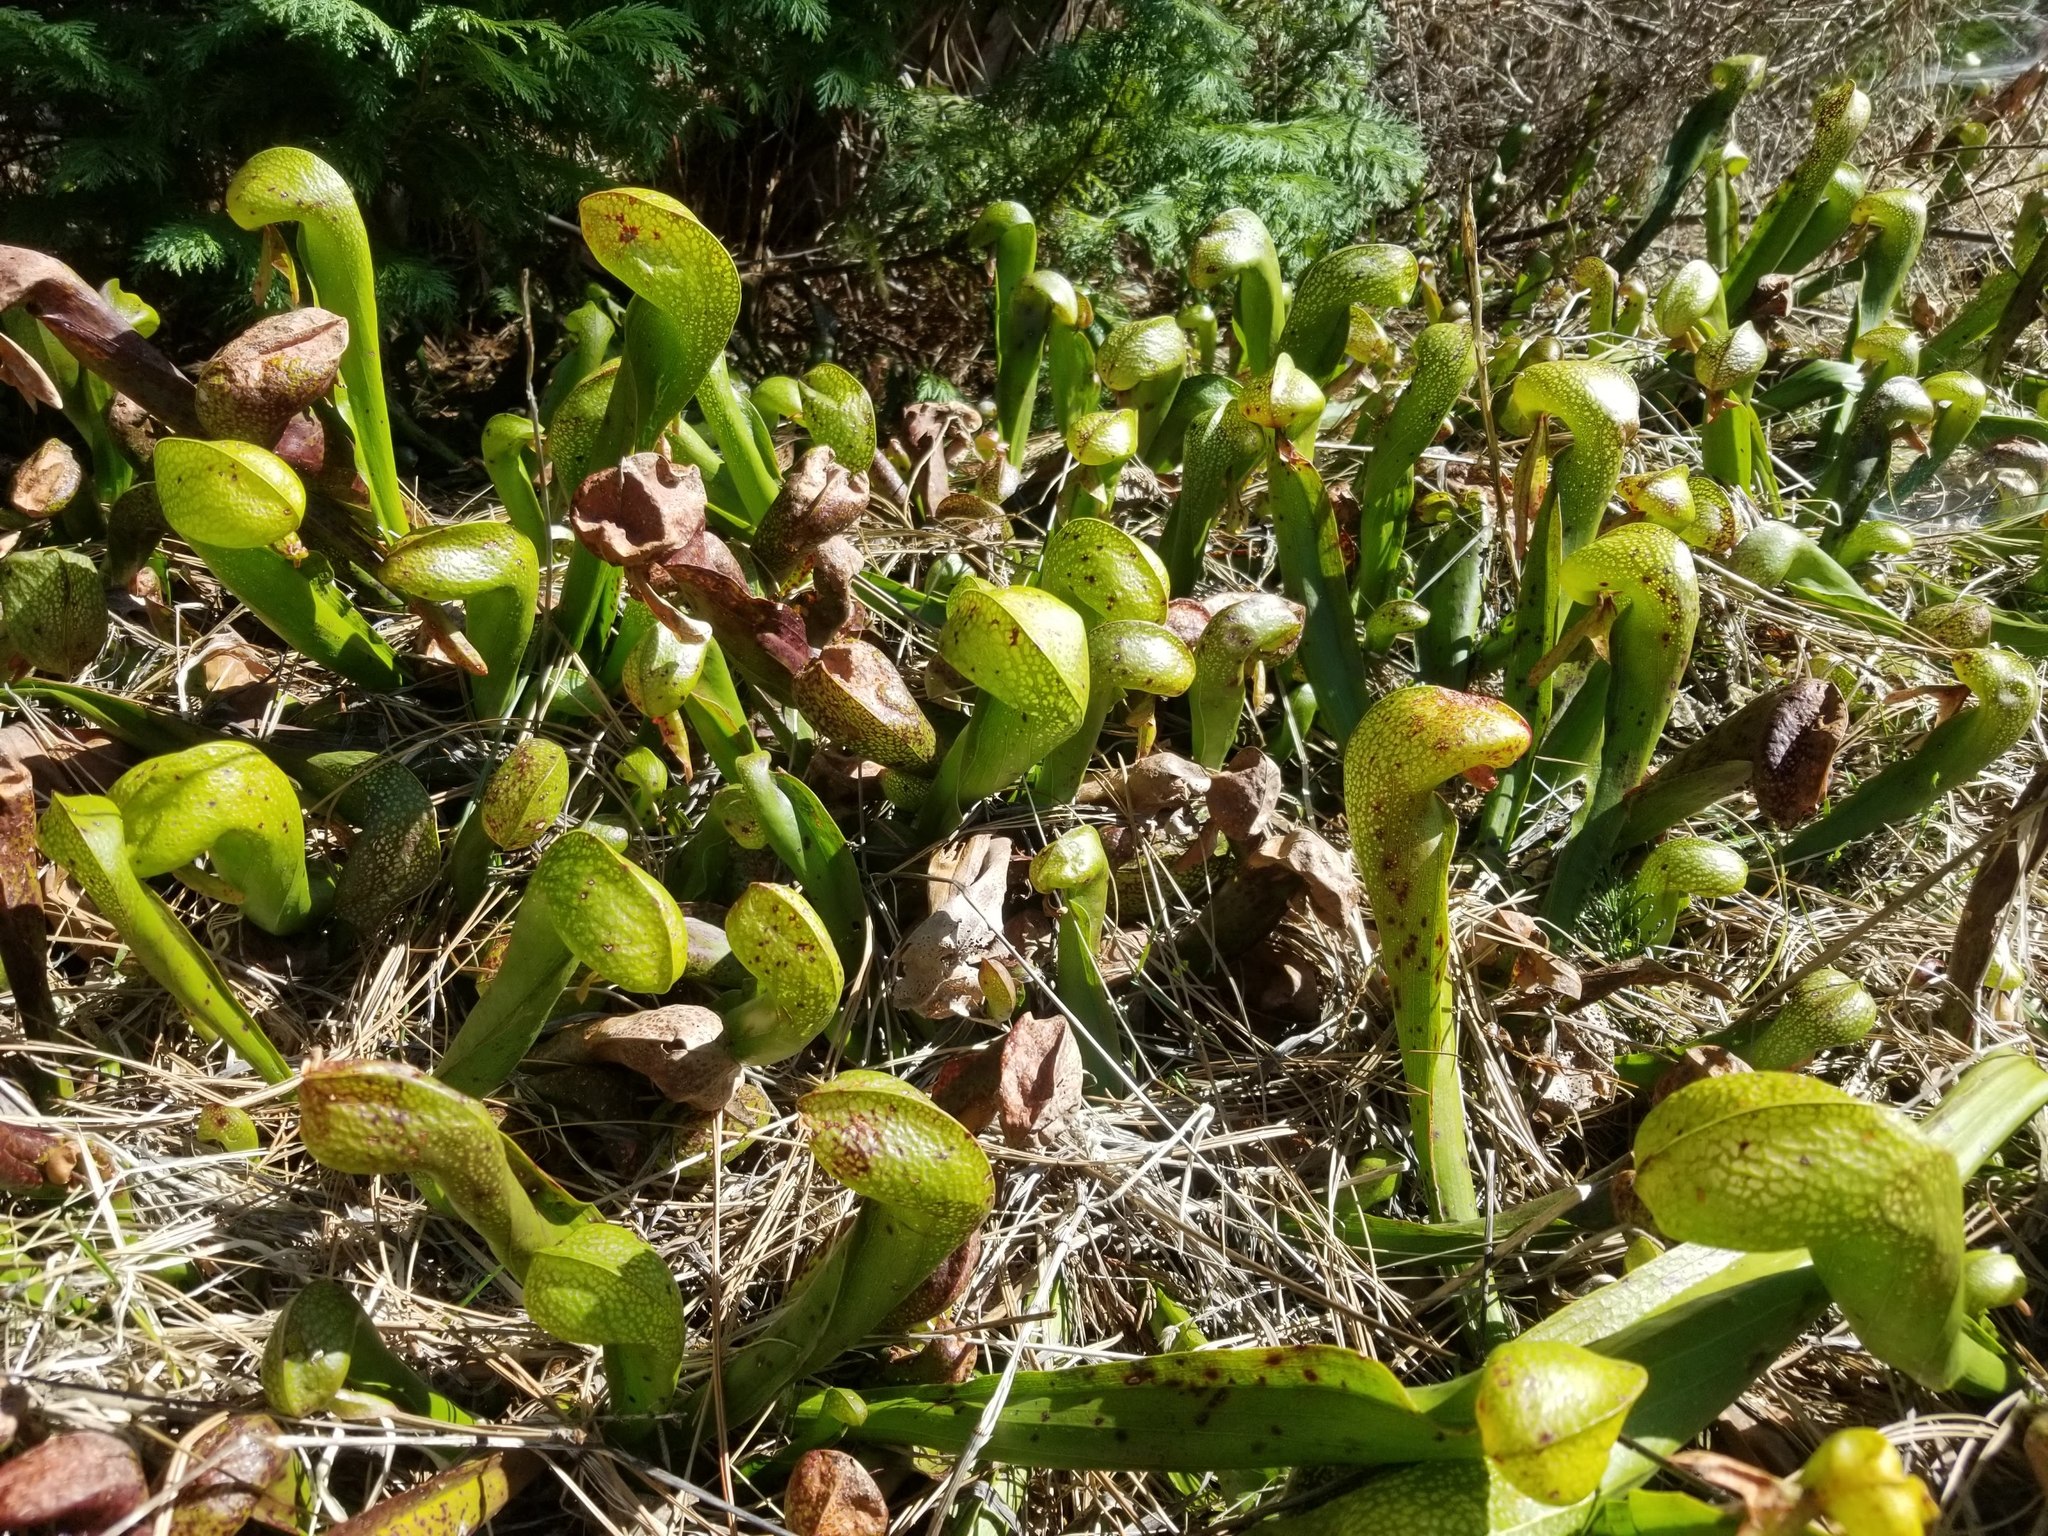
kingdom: Plantae
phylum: Tracheophyta
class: Magnoliopsida
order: Ericales
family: Sarraceniaceae
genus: Darlingtonia
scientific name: Darlingtonia californica
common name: California pitcher plant
